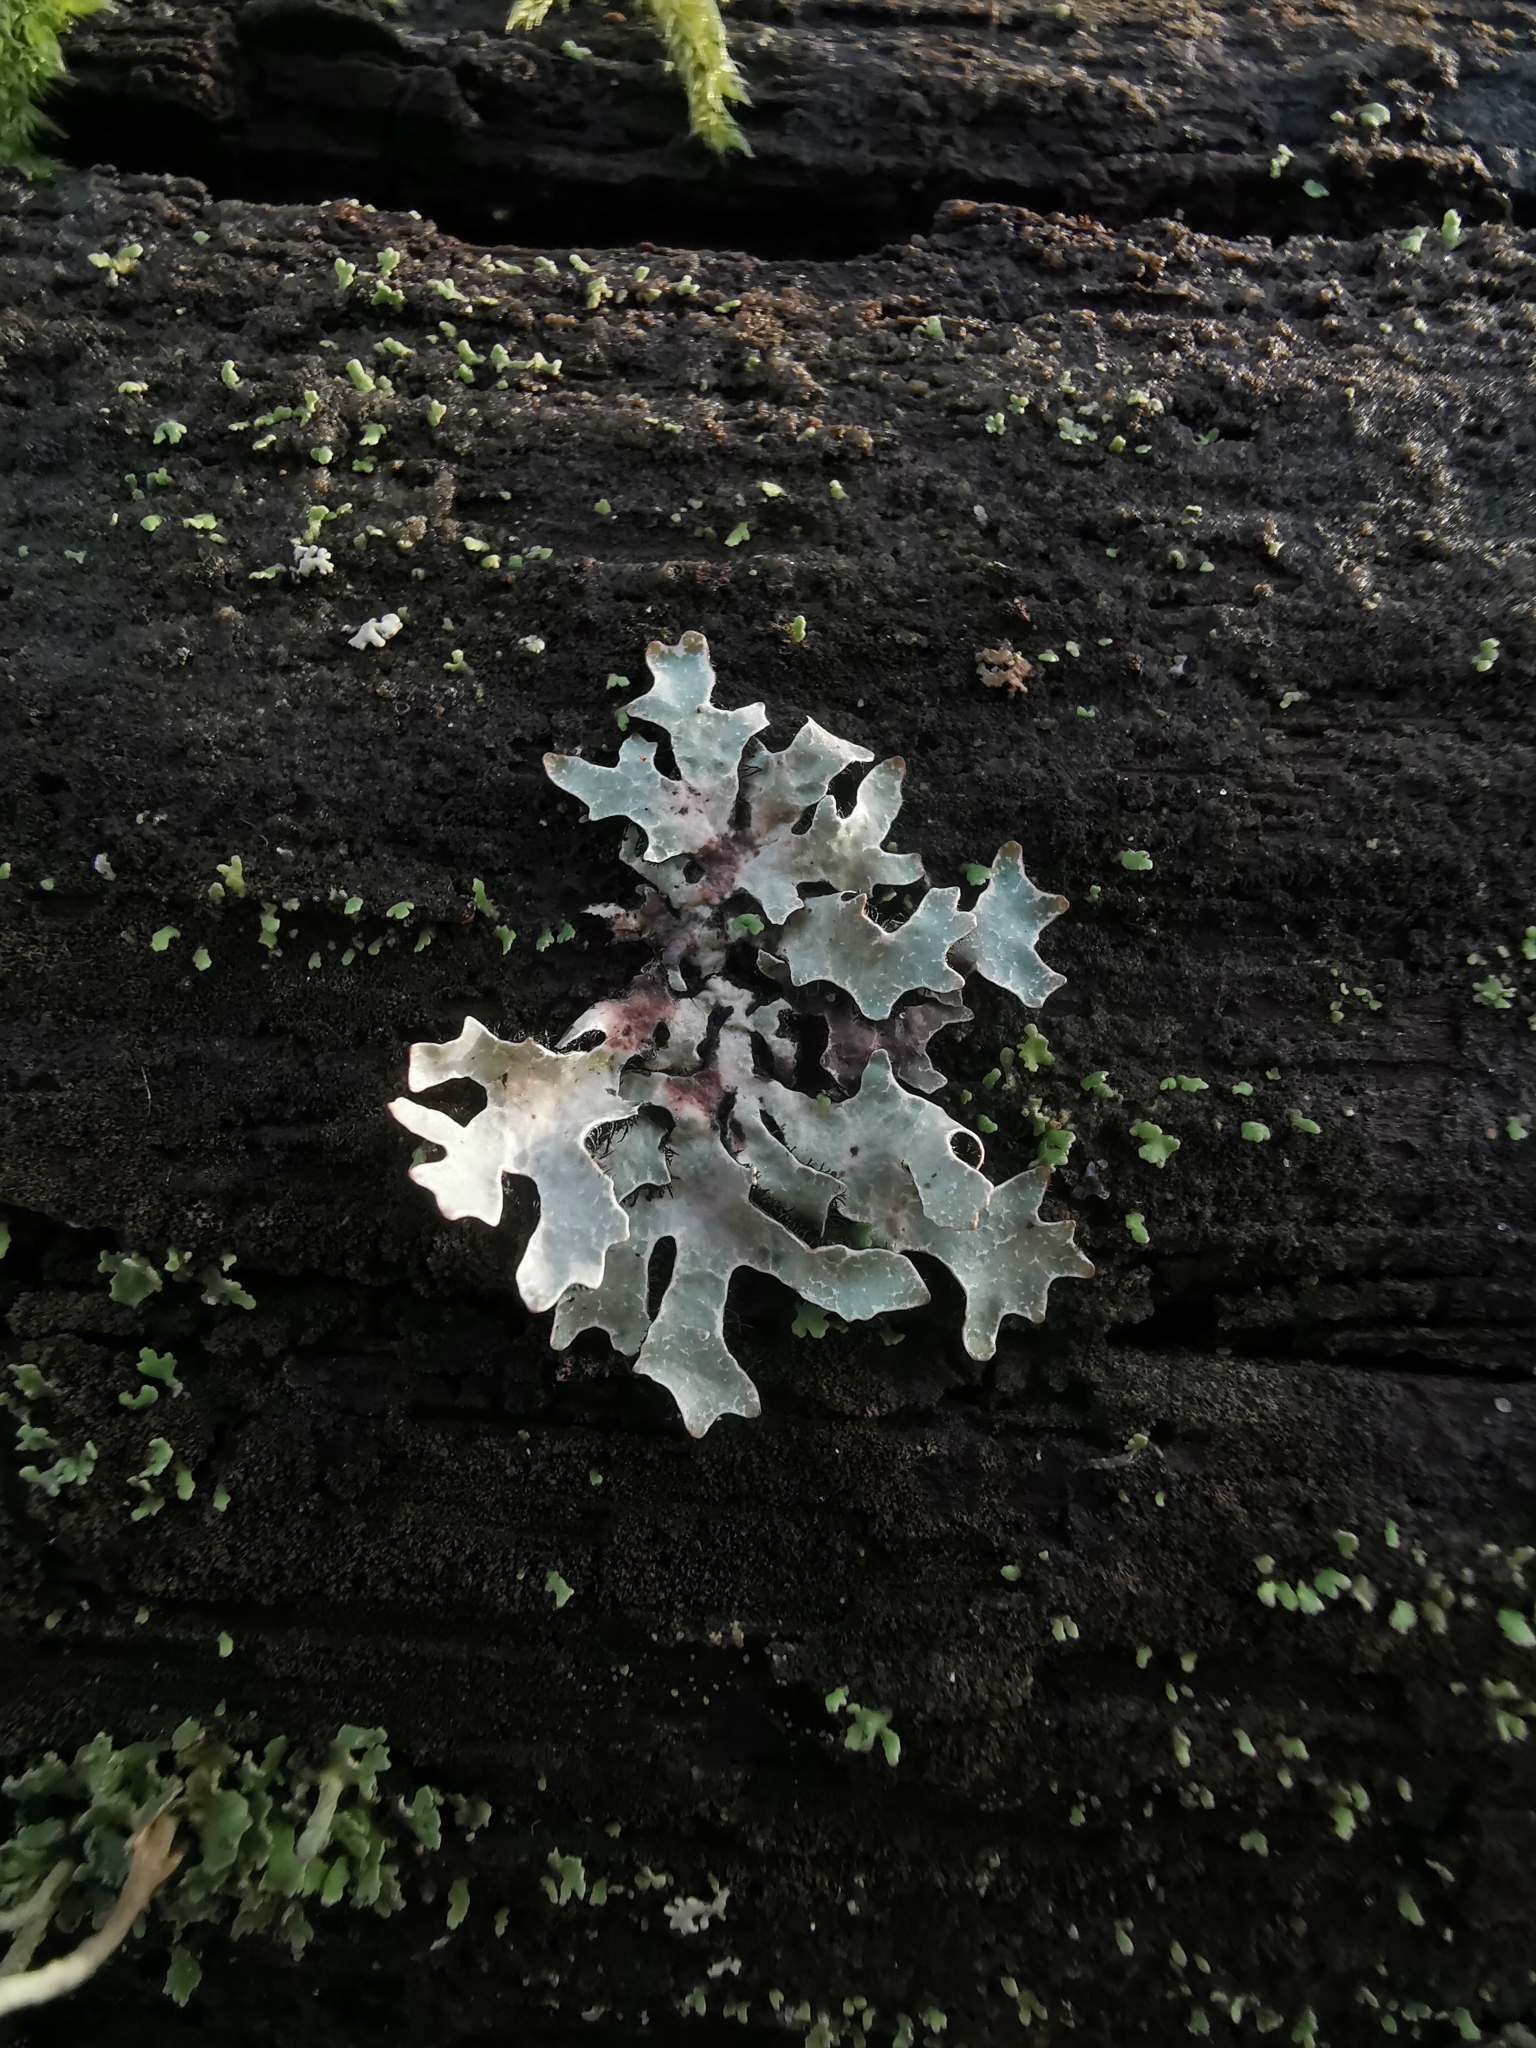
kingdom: Fungi
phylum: Ascomycota
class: Lecanoromycetes
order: Lecanorales
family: Parmeliaceae
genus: Parmelia
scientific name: Parmelia sulcata
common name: Netted shield lichen
